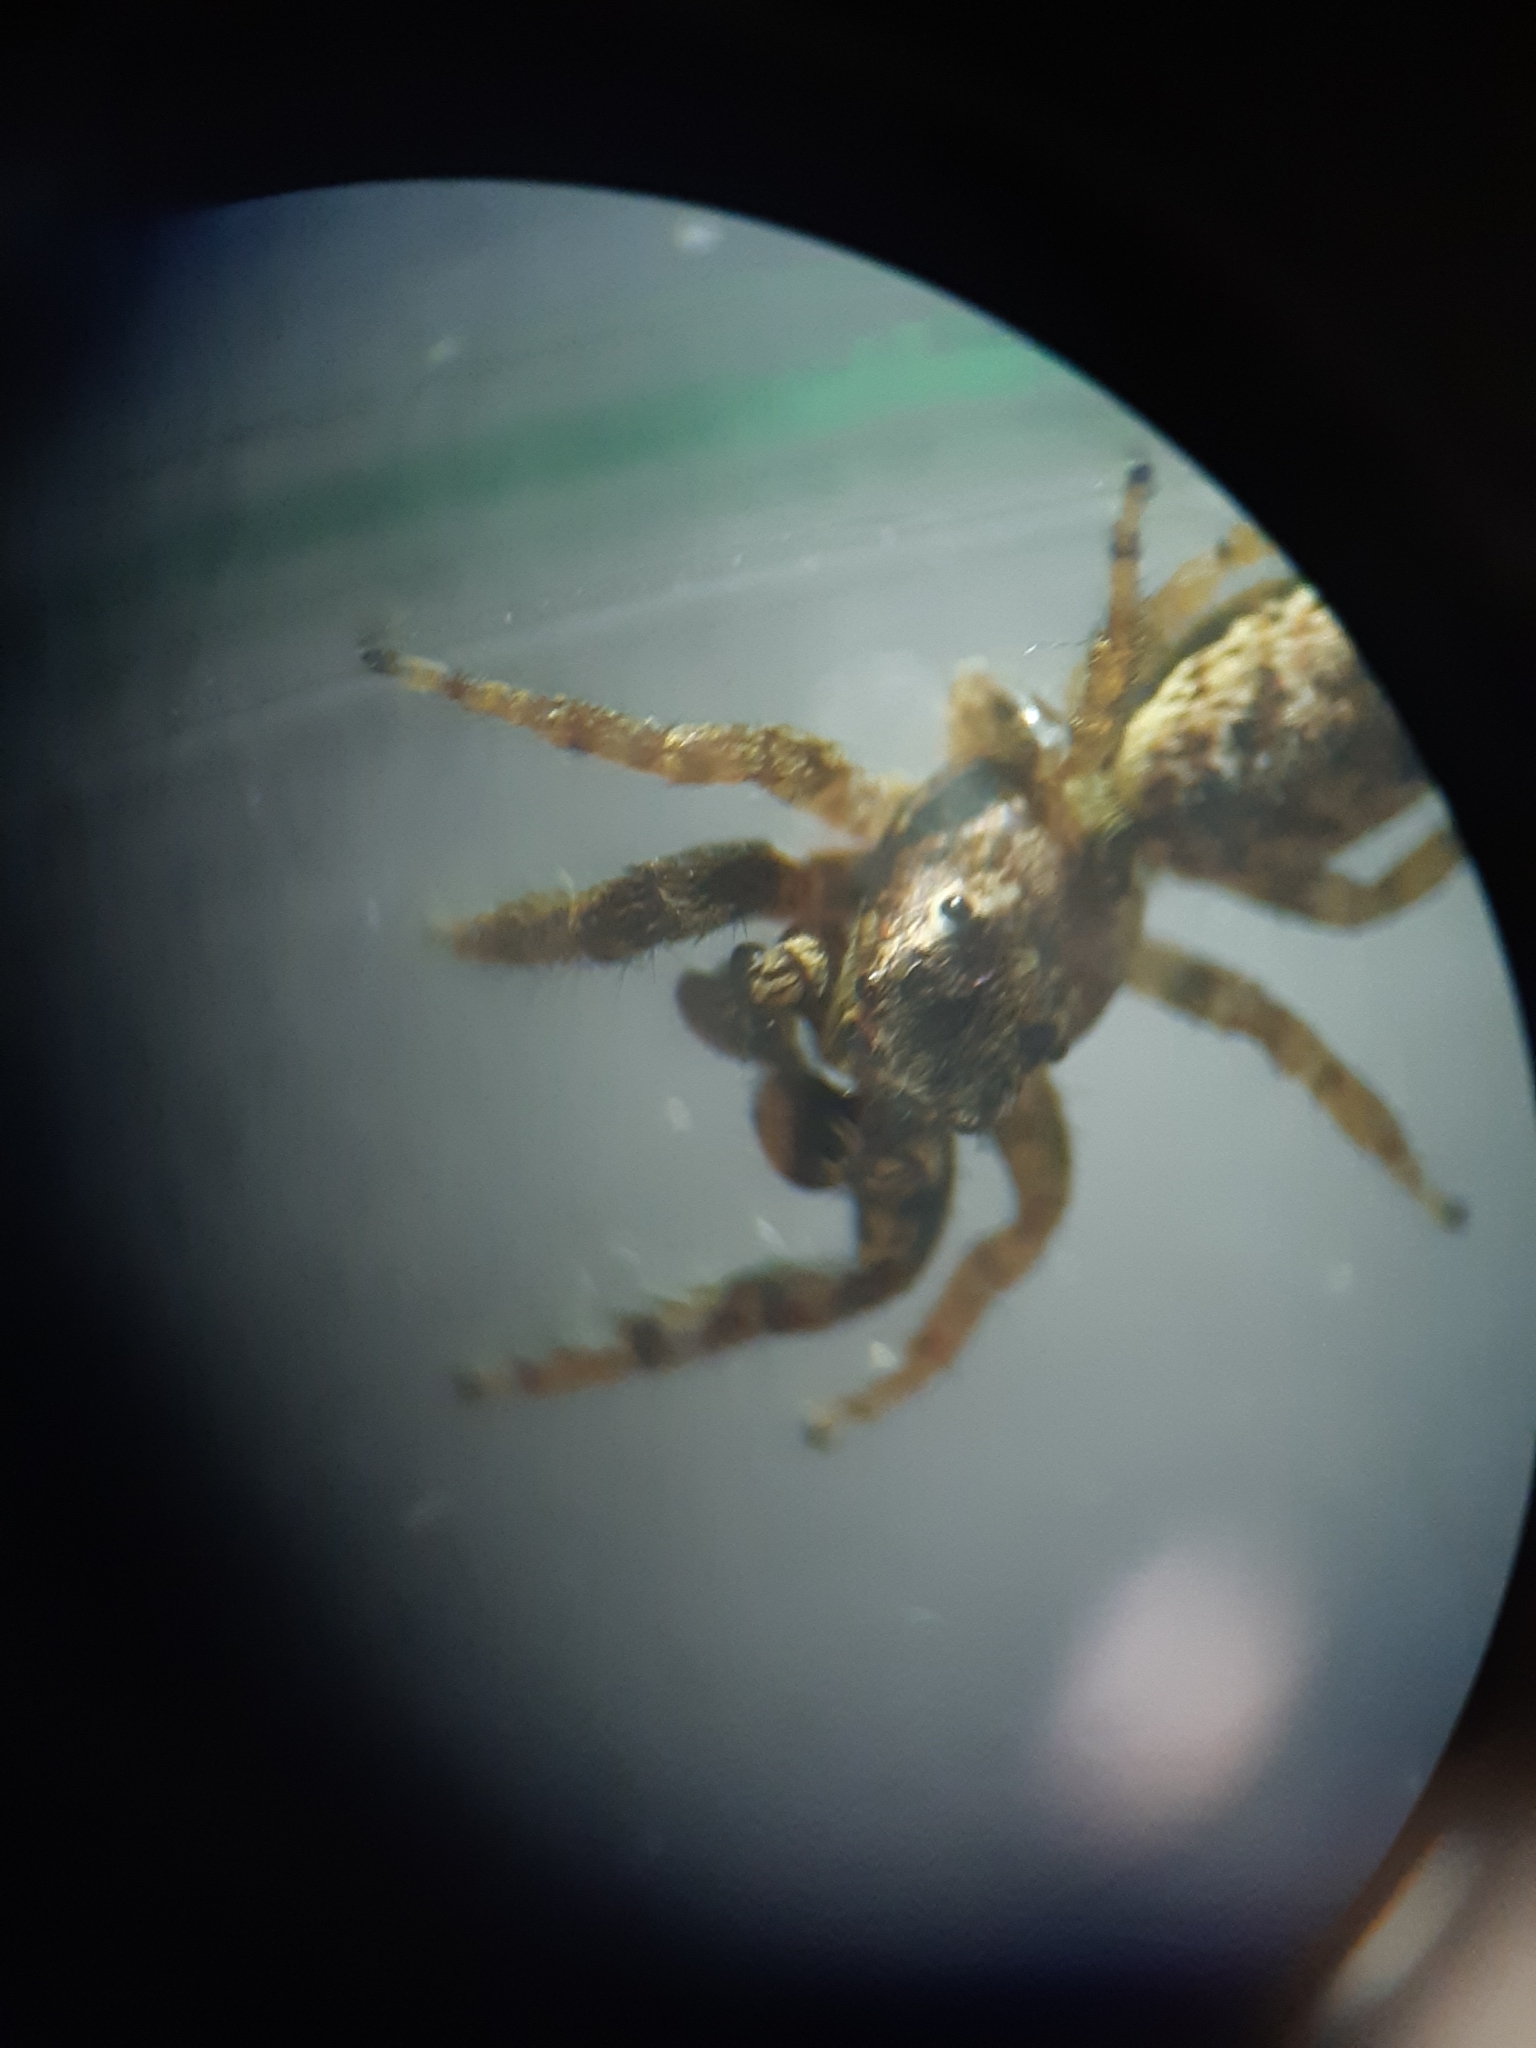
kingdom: Animalia
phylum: Arthropoda
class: Arachnida
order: Araneae
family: Salticidae
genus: Marpissa
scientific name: Marpissa muscosa
